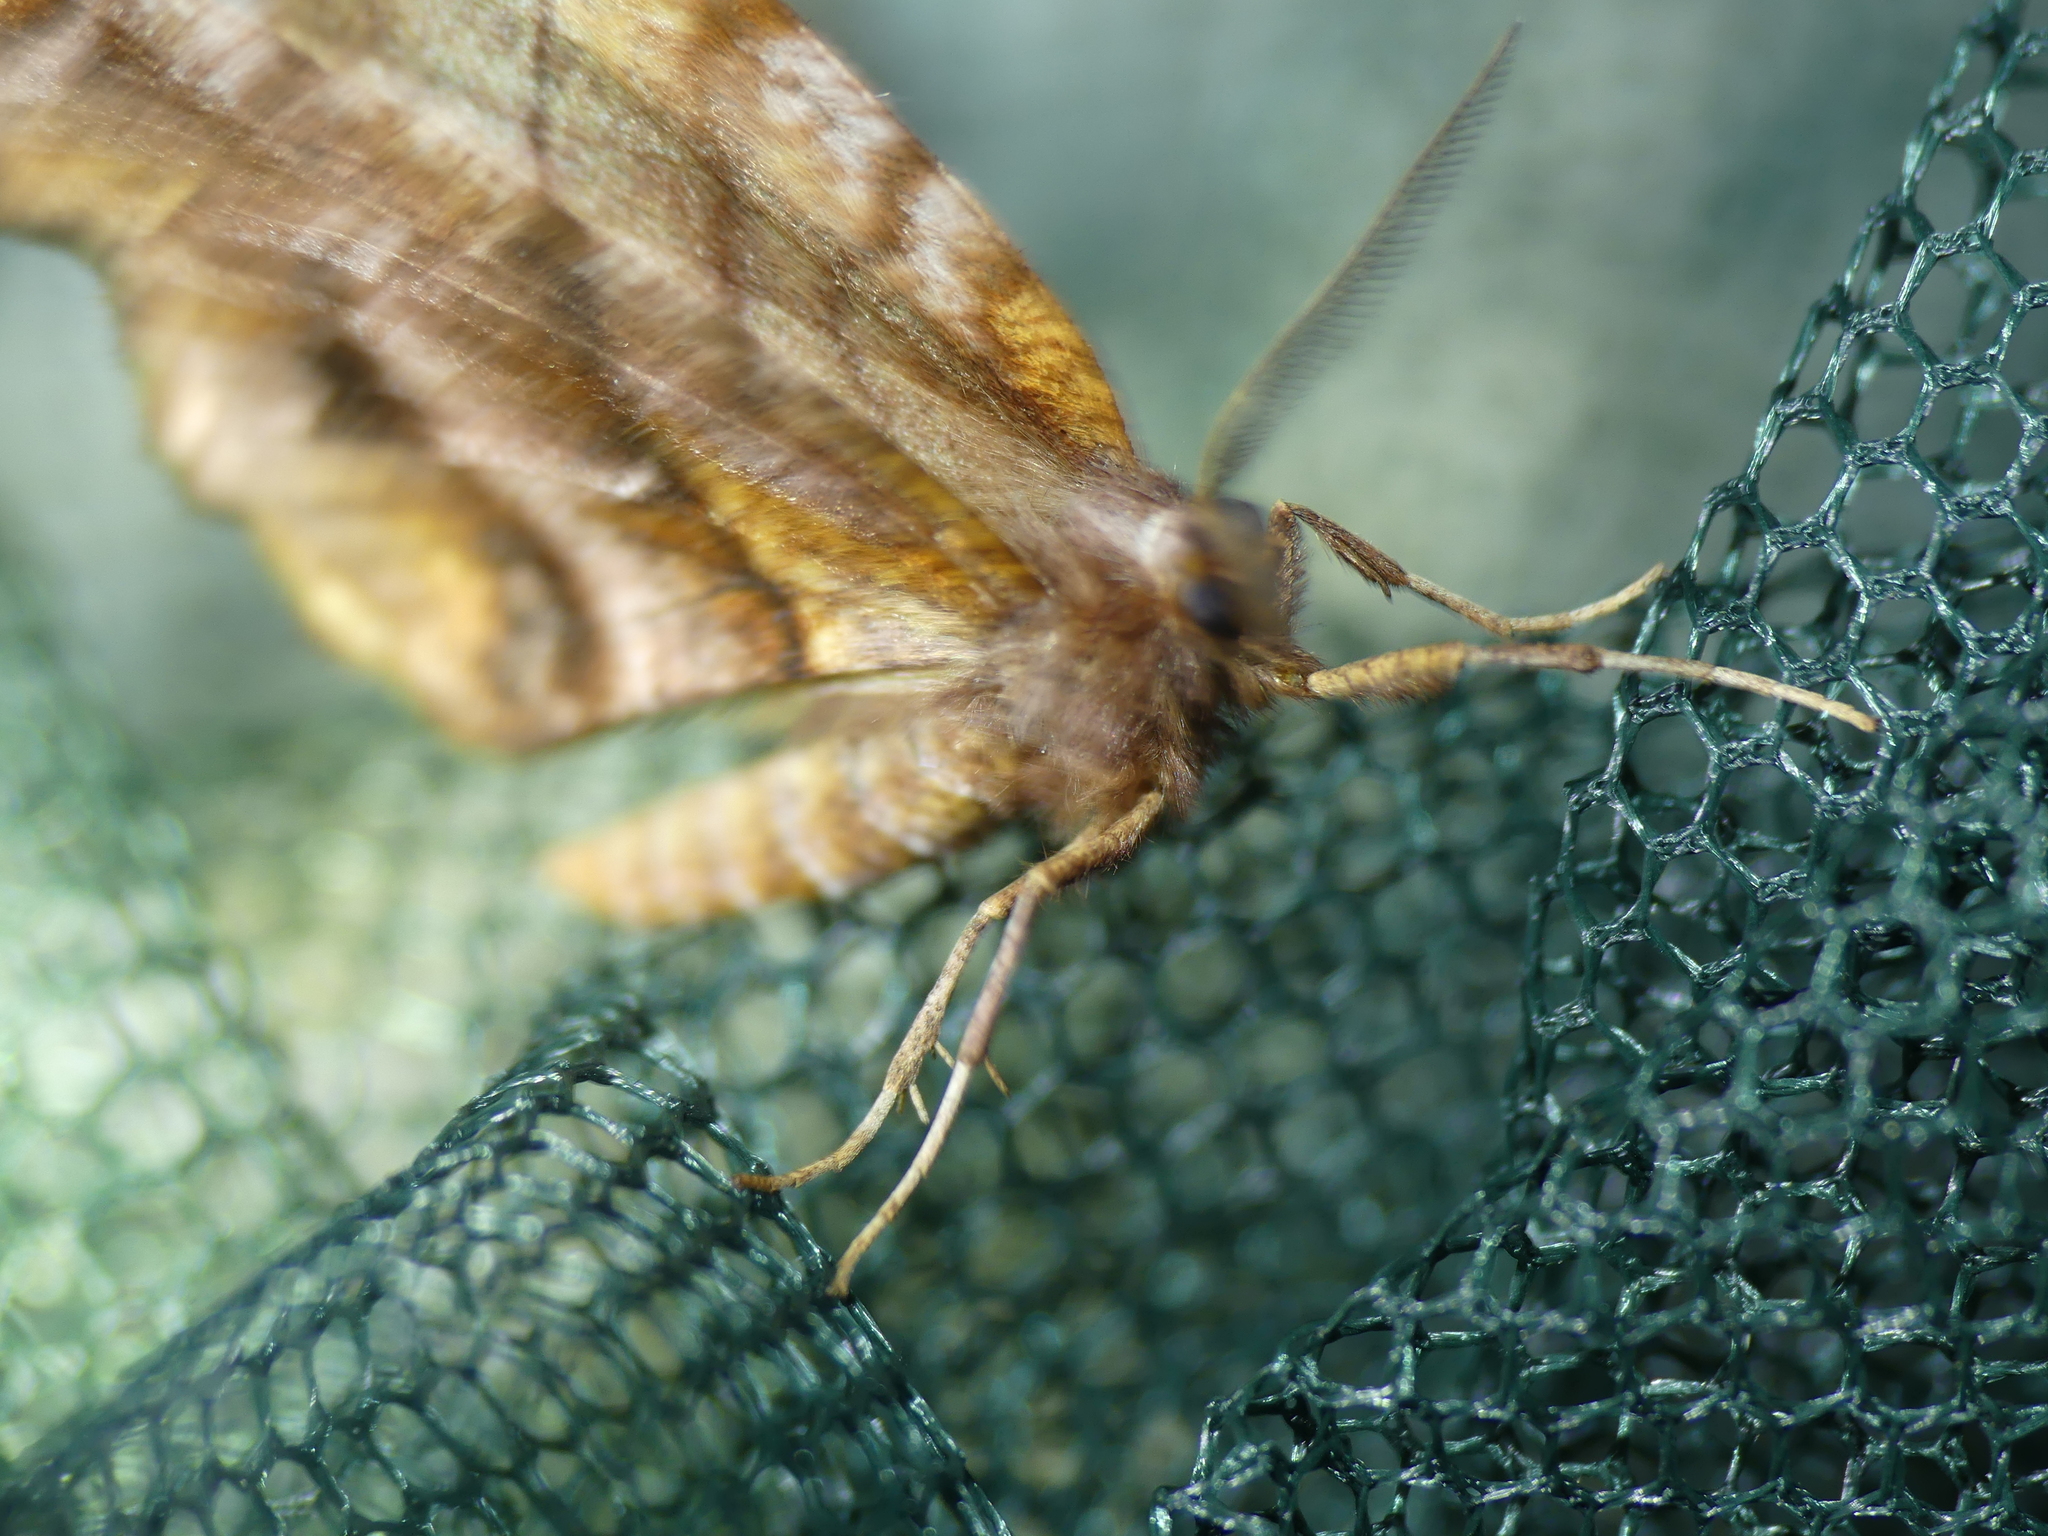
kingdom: Animalia
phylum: Arthropoda
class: Insecta
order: Lepidoptera
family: Geometridae
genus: Selenia
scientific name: Selenia dentaria
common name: Early thorn
